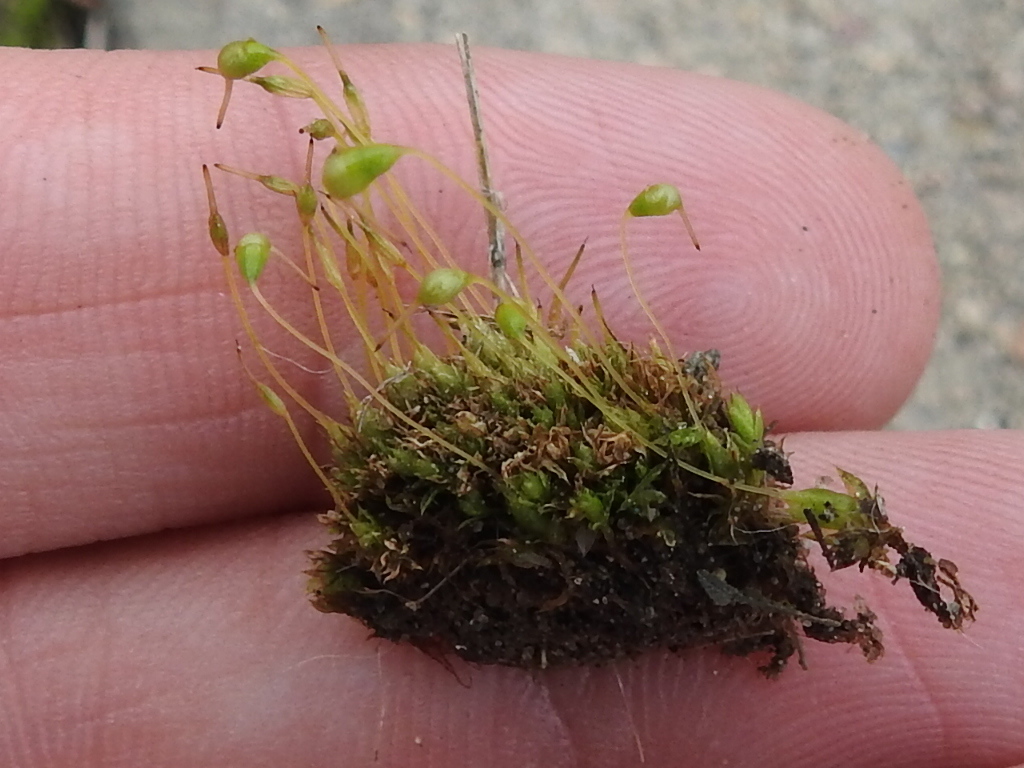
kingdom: Plantae
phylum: Bryophyta
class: Bryopsida
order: Funariales
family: Funariaceae
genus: Funaria
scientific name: Funaria hygrometrica
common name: Common cord moss
